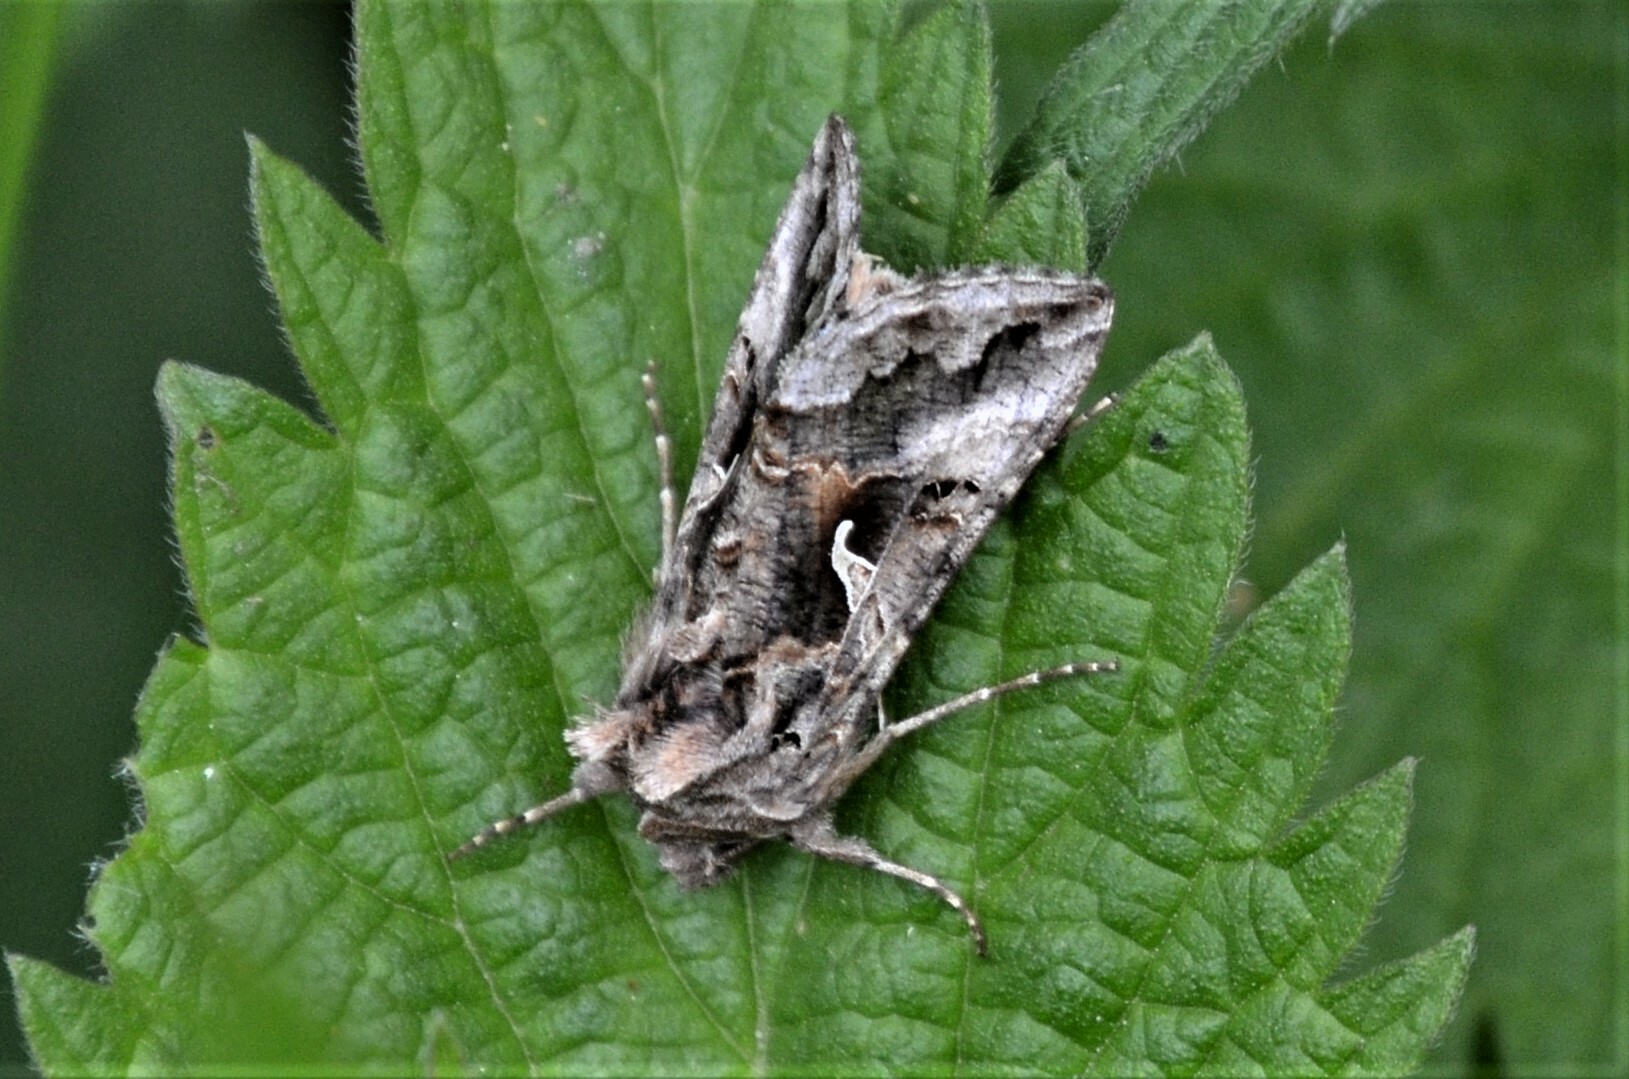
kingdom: Animalia
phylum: Arthropoda
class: Insecta
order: Lepidoptera
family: Noctuidae
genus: Autographa
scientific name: Autographa gamma
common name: Silver y
